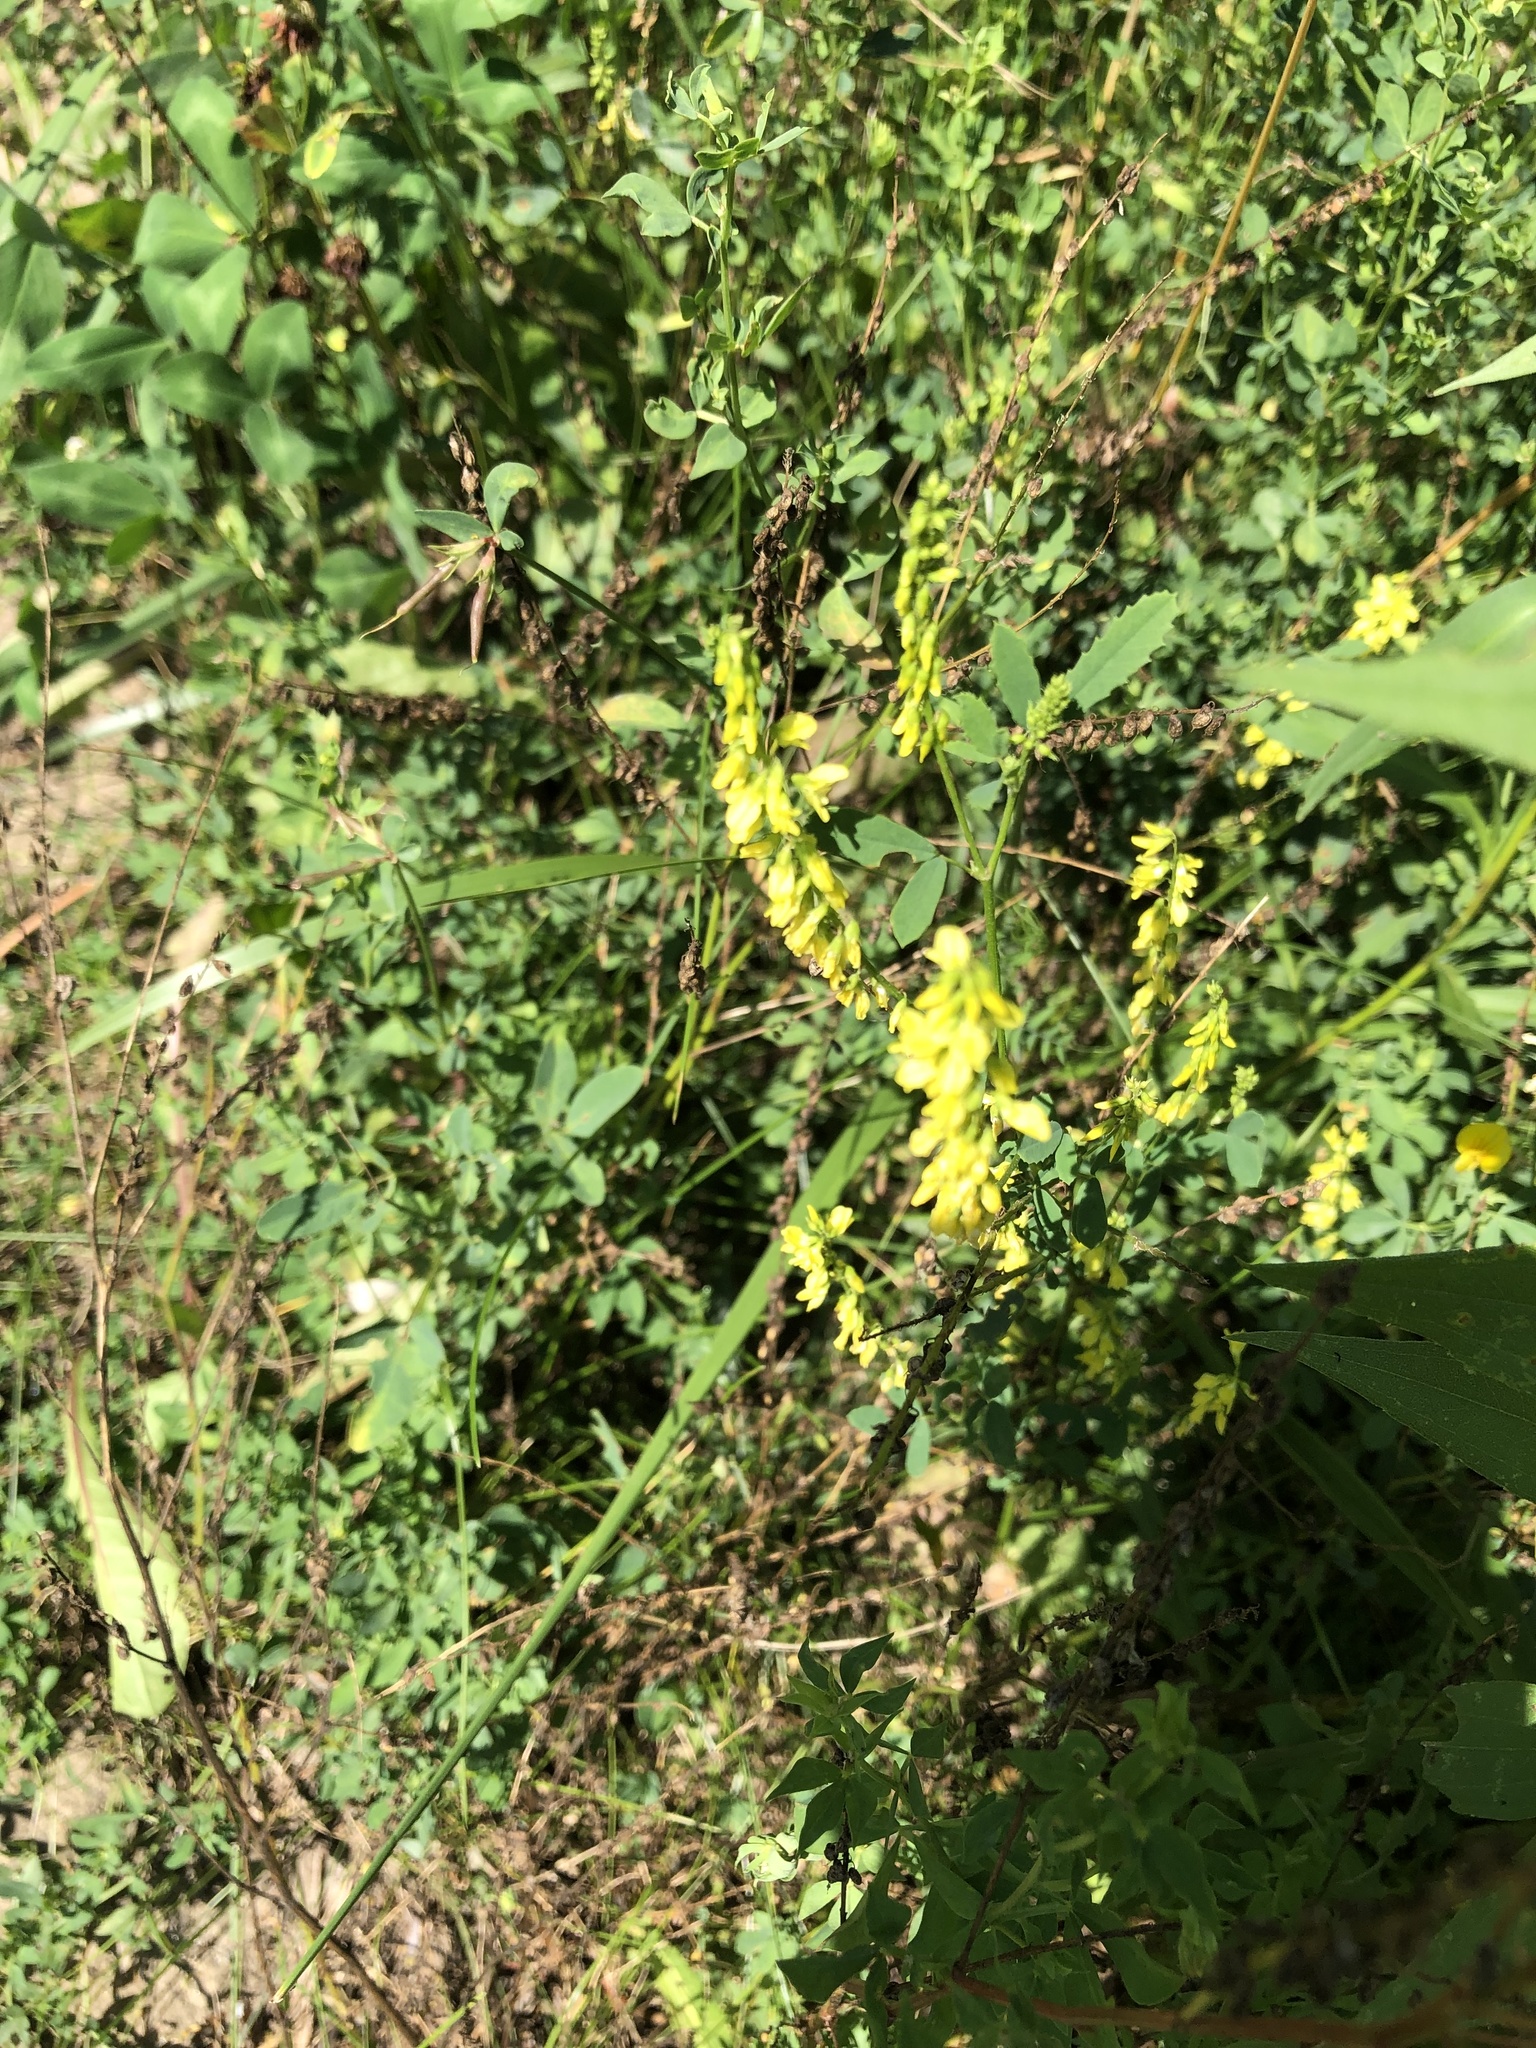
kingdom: Plantae
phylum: Tracheophyta
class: Magnoliopsida
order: Fabales
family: Fabaceae
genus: Melilotus
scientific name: Melilotus officinalis
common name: Sweetclover
